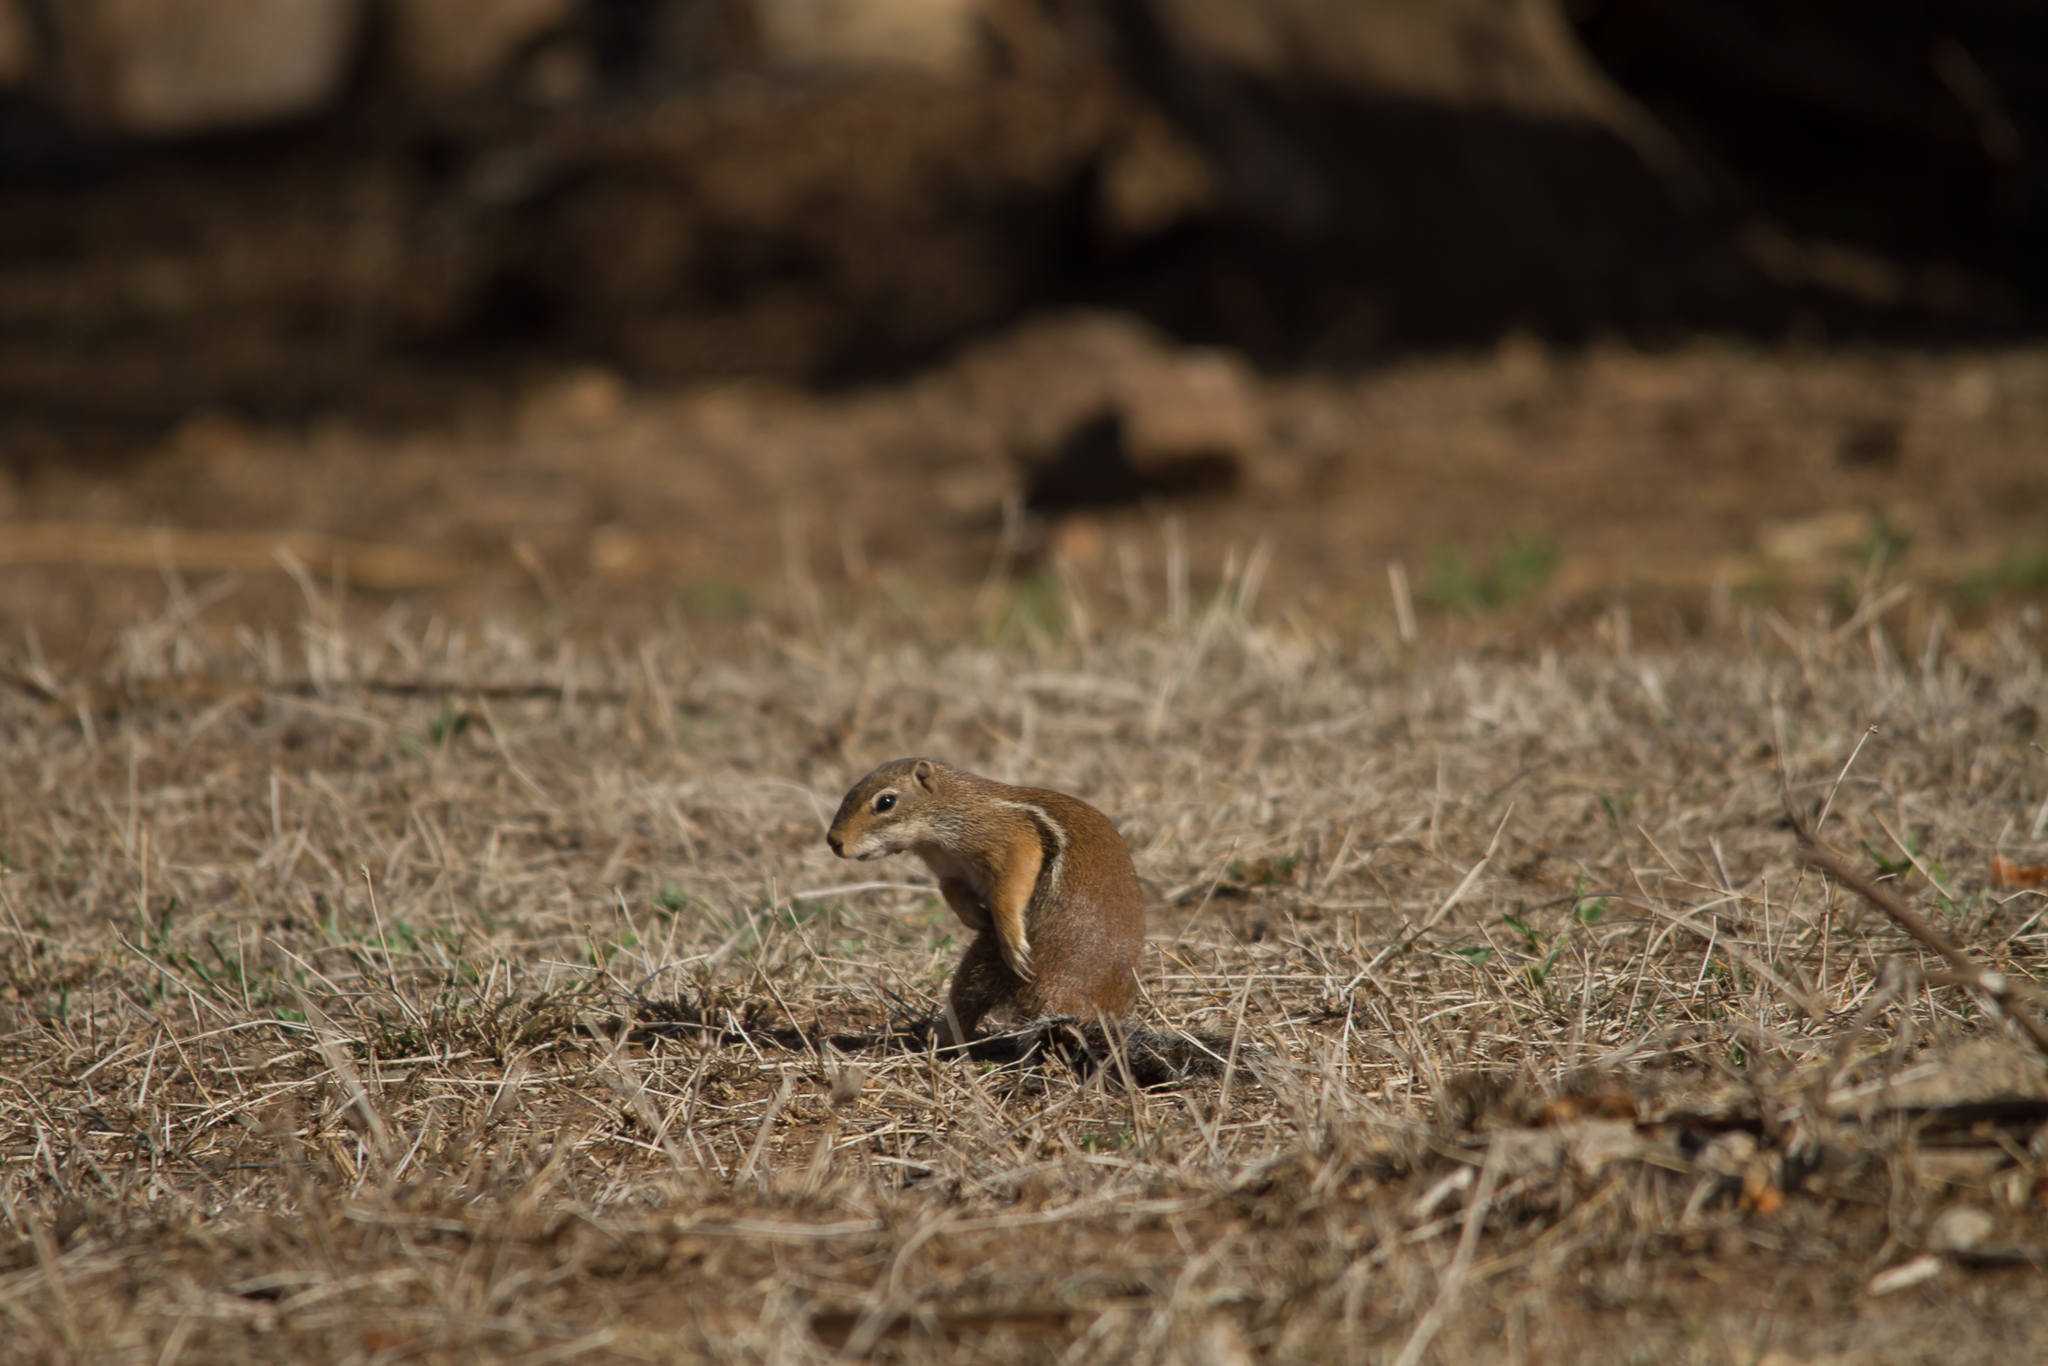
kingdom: Animalia
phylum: Chordata
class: Mammalia
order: Rodentia
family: Sciuridae
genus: Xerus
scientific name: Xerus erythropus
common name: Striped ground squirrel
